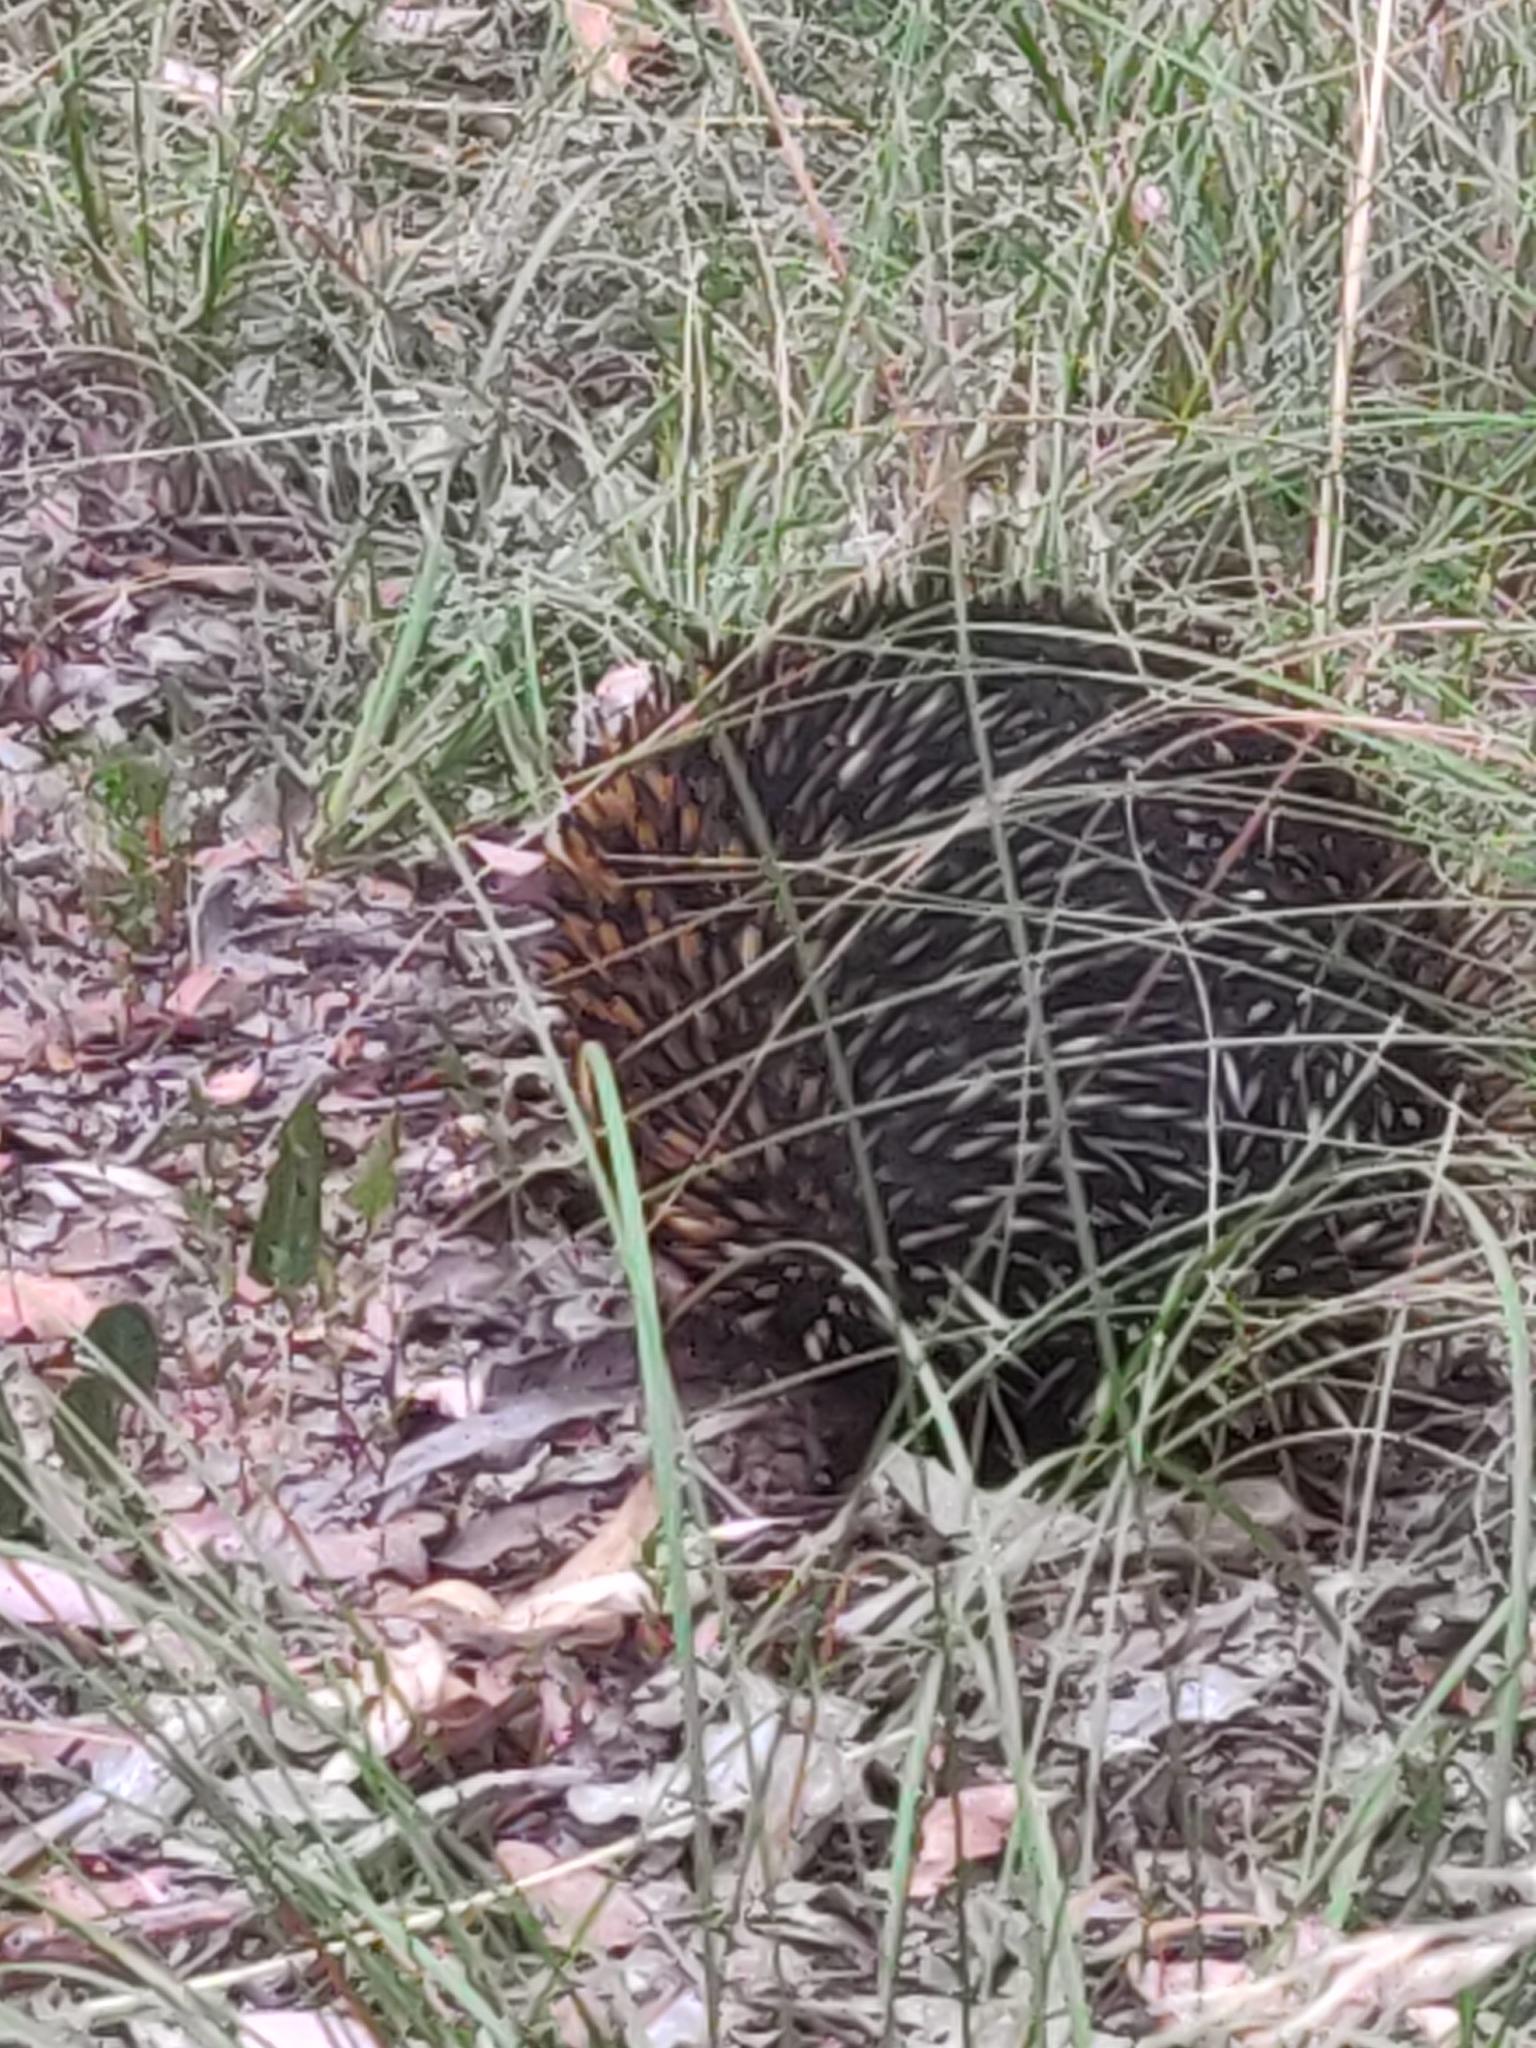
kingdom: Animalia
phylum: Chordata
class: Mammalia
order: Monotremata
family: Tachyglossidae
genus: Tachyglossus
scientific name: Tachyglossus aculeatus
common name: Short-beaked echidna
